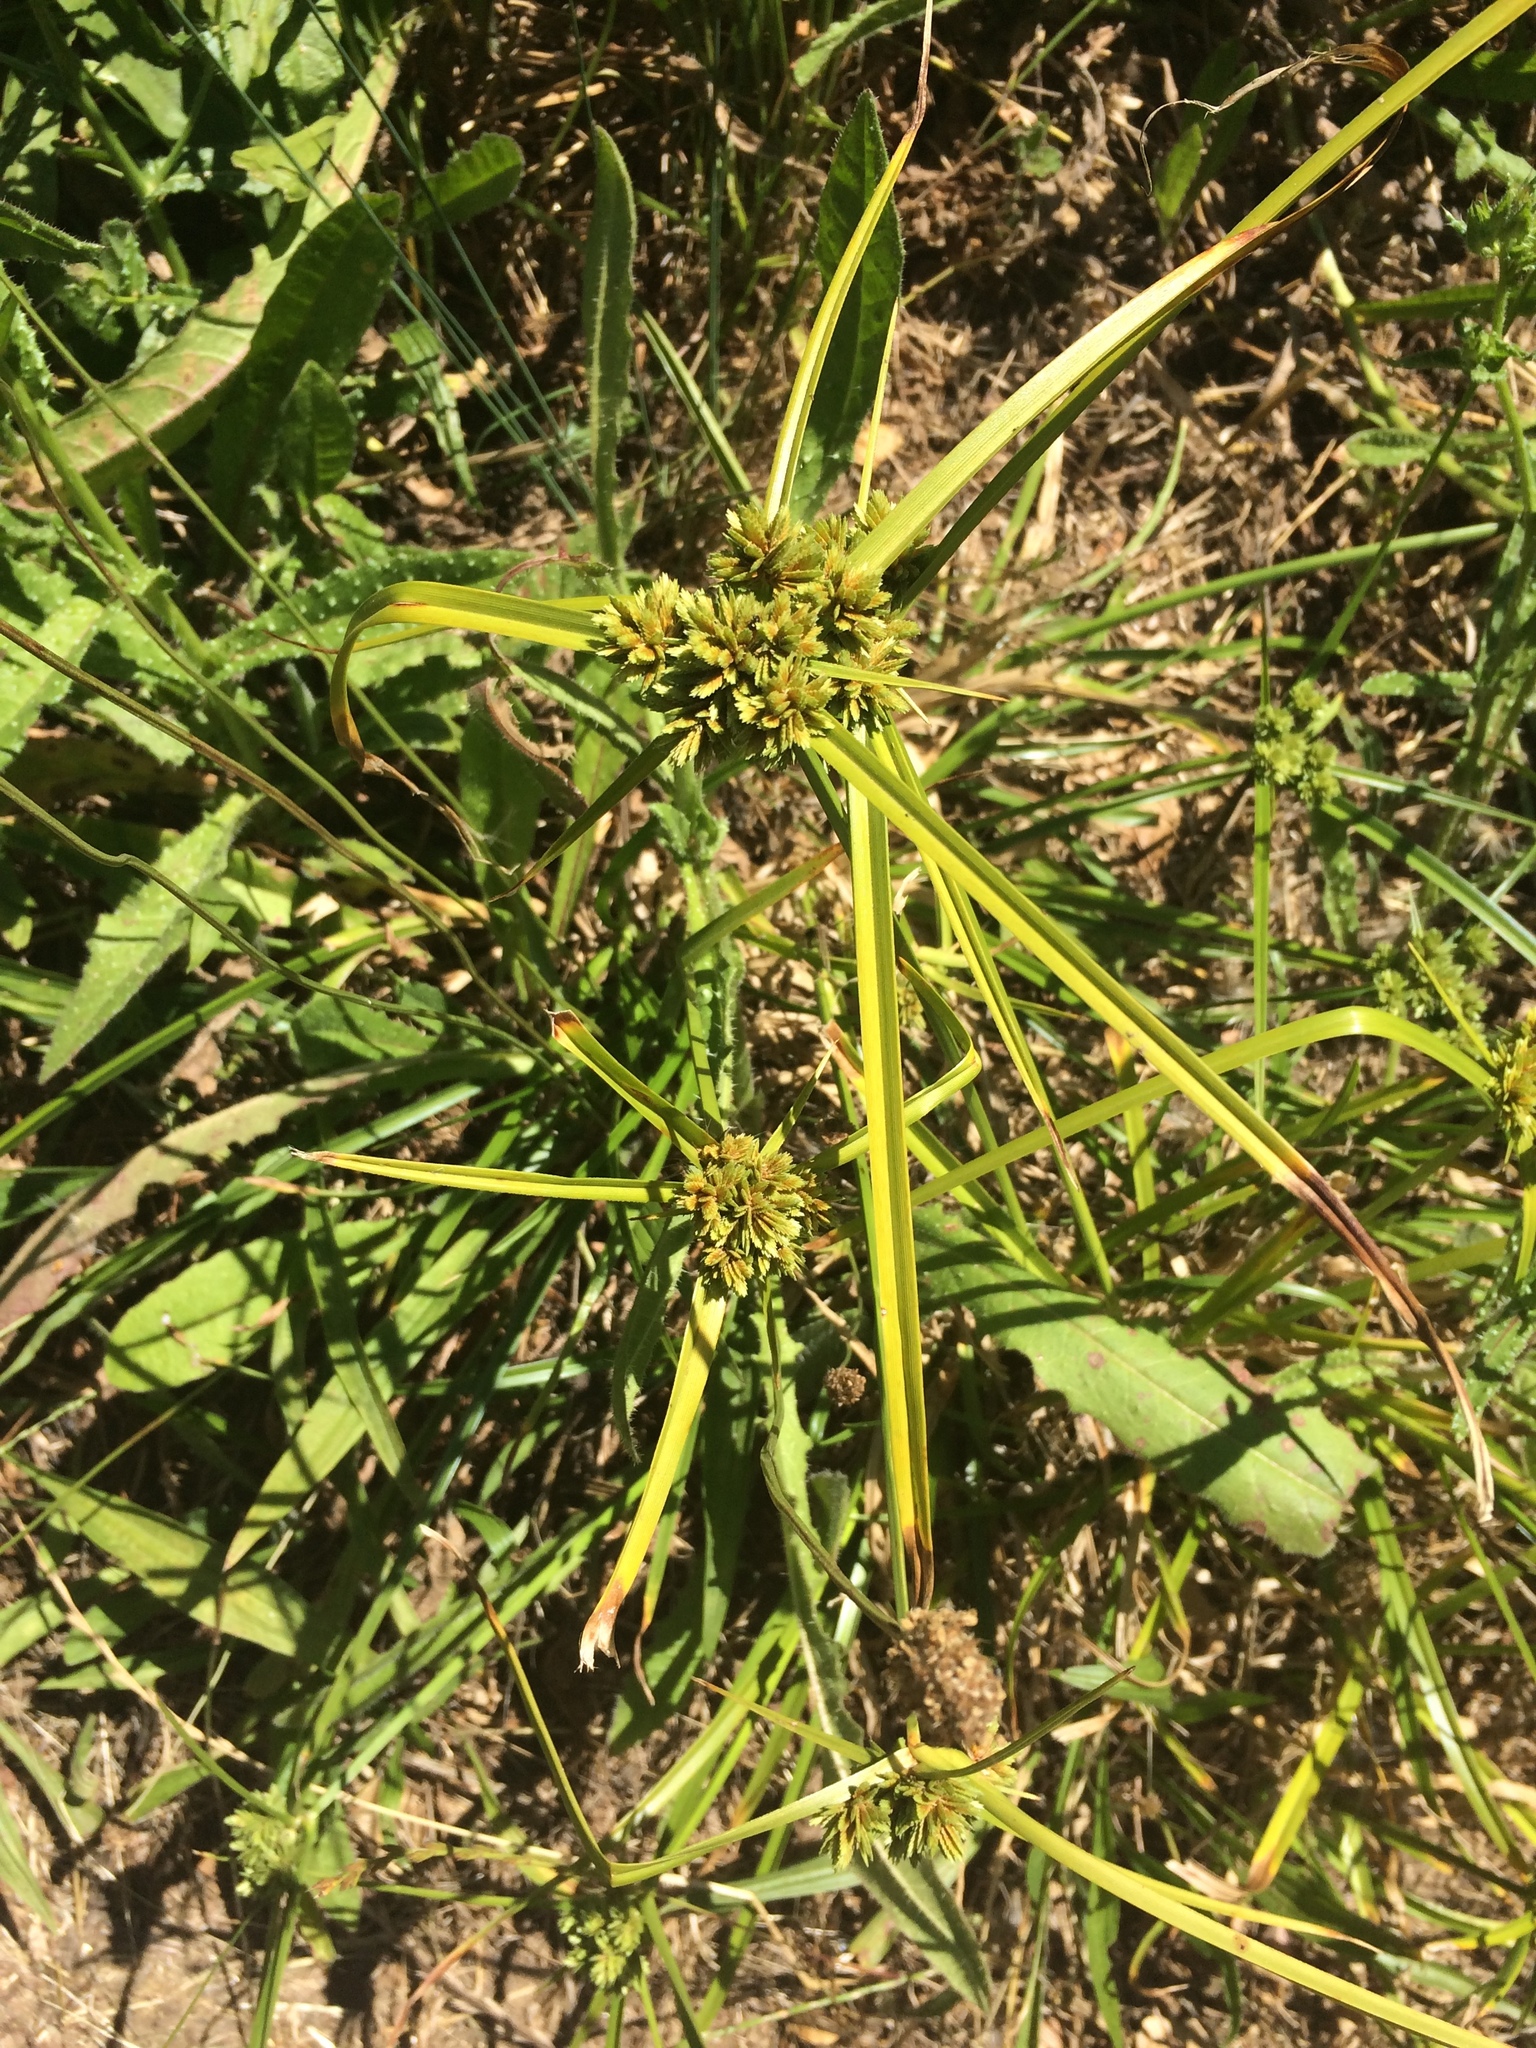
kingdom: Plantae
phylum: Tracheophyta
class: Liliopsida
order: Poales
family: Cyperaceae
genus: Cyperus
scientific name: Cyperus eragrostis
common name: Tall flatsedge
